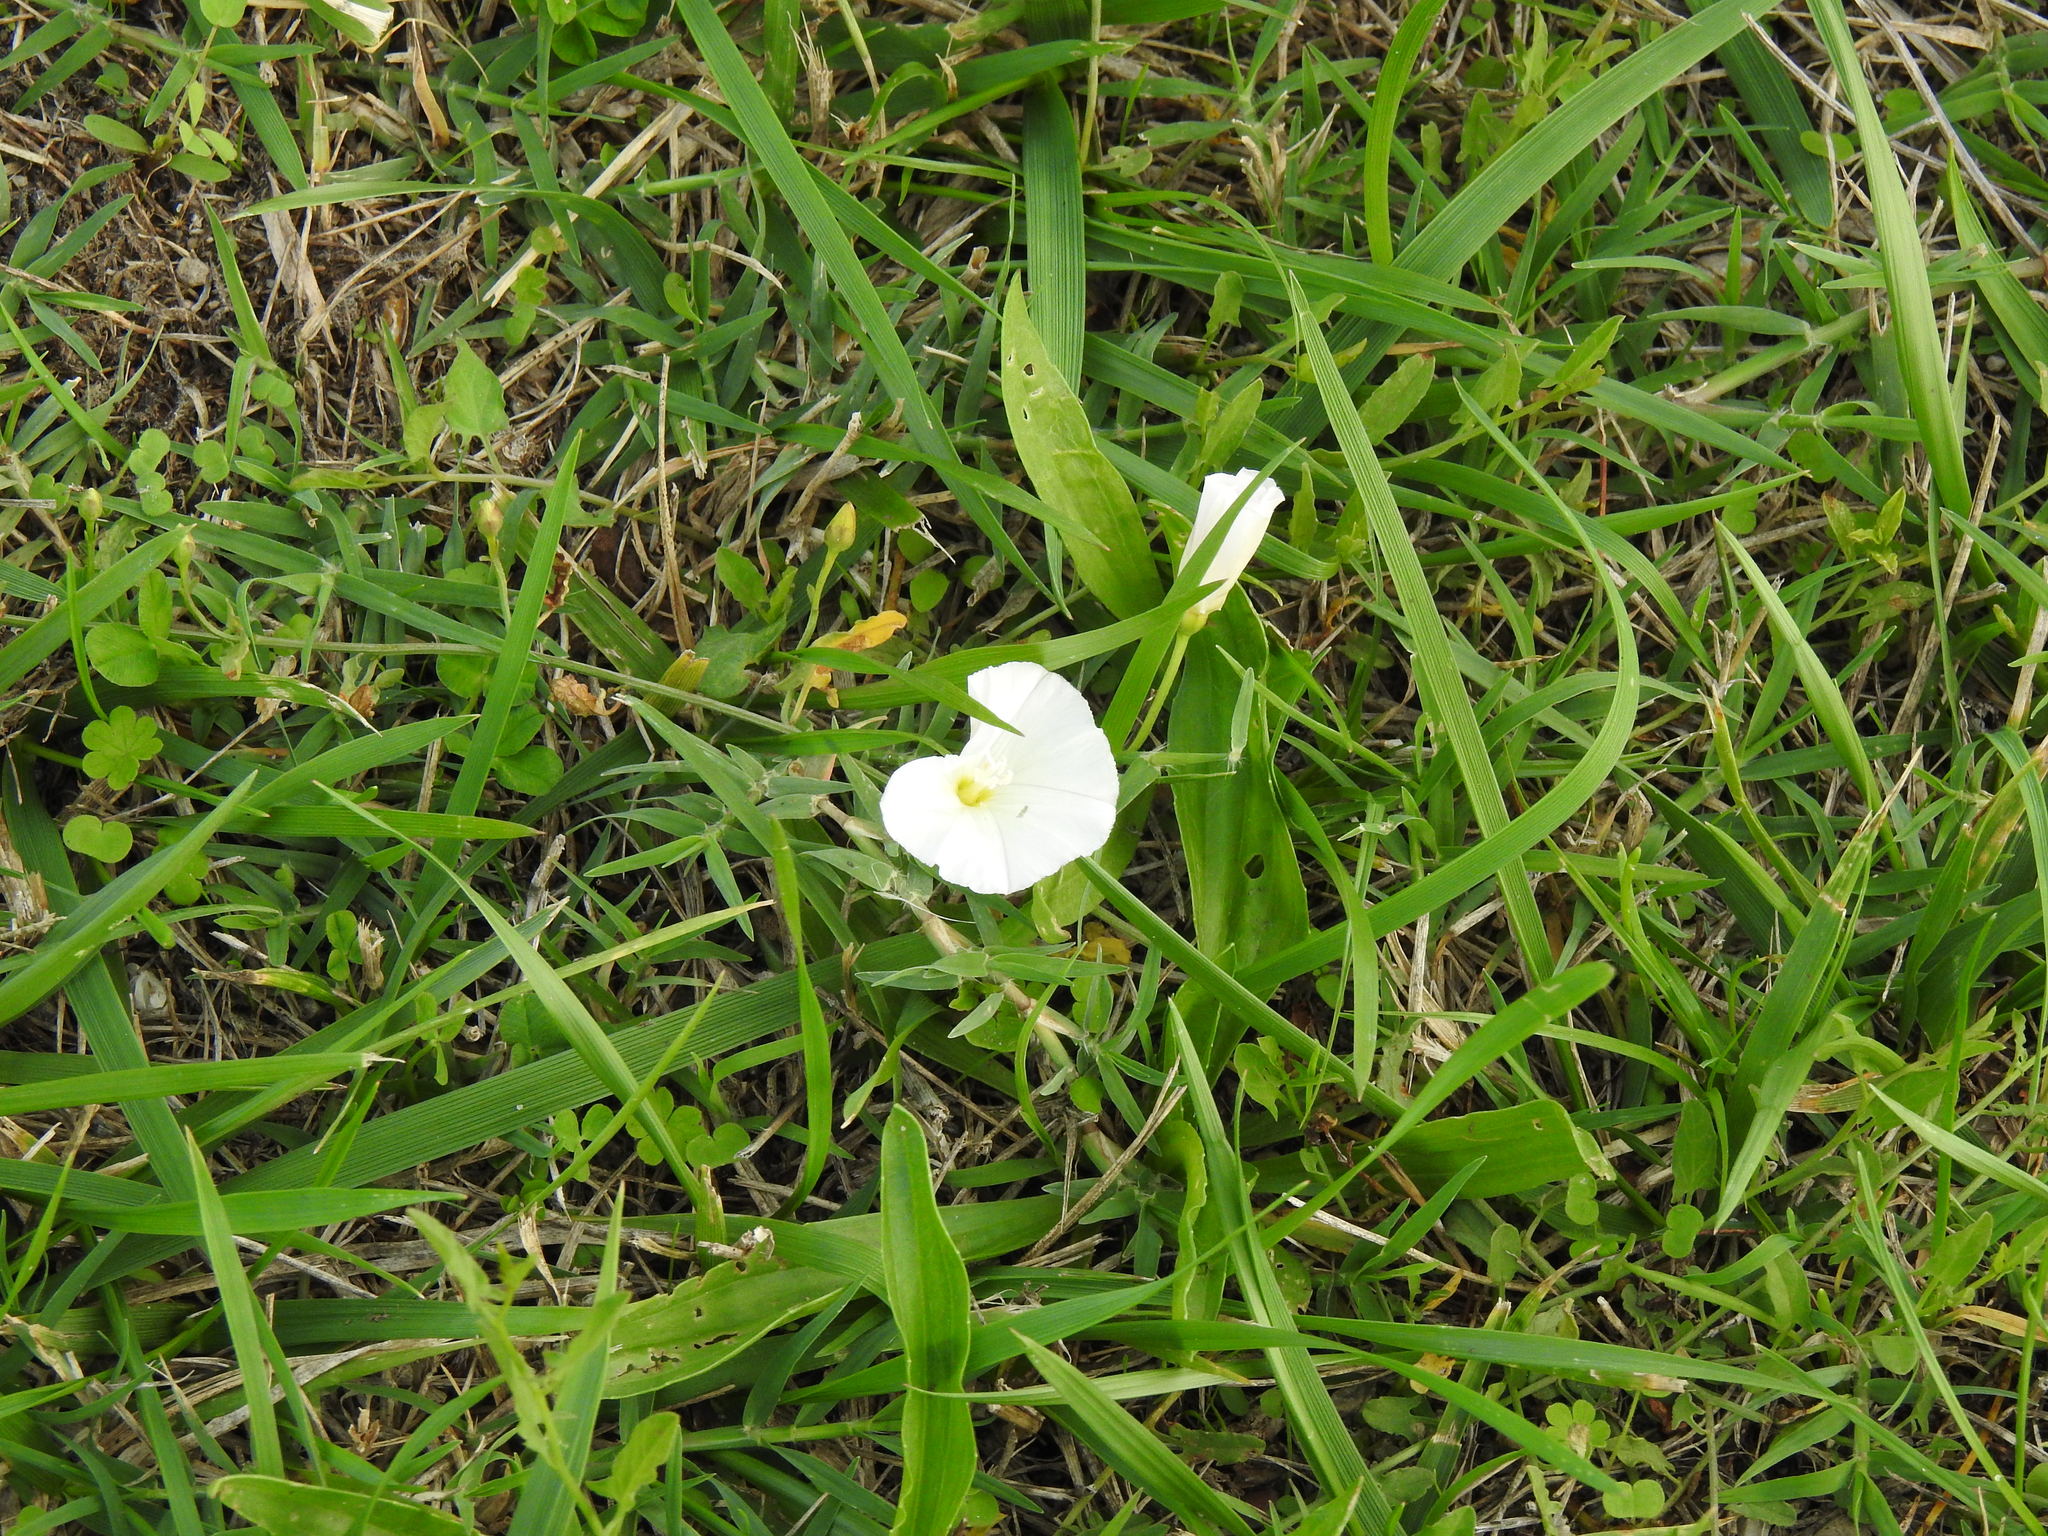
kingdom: Plantae
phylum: Tracheophyta
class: Magnoliopsida
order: Solanales
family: Convolvulaceae
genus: Convolvulus
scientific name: Convolvulus arvensis
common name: Field bindweed
